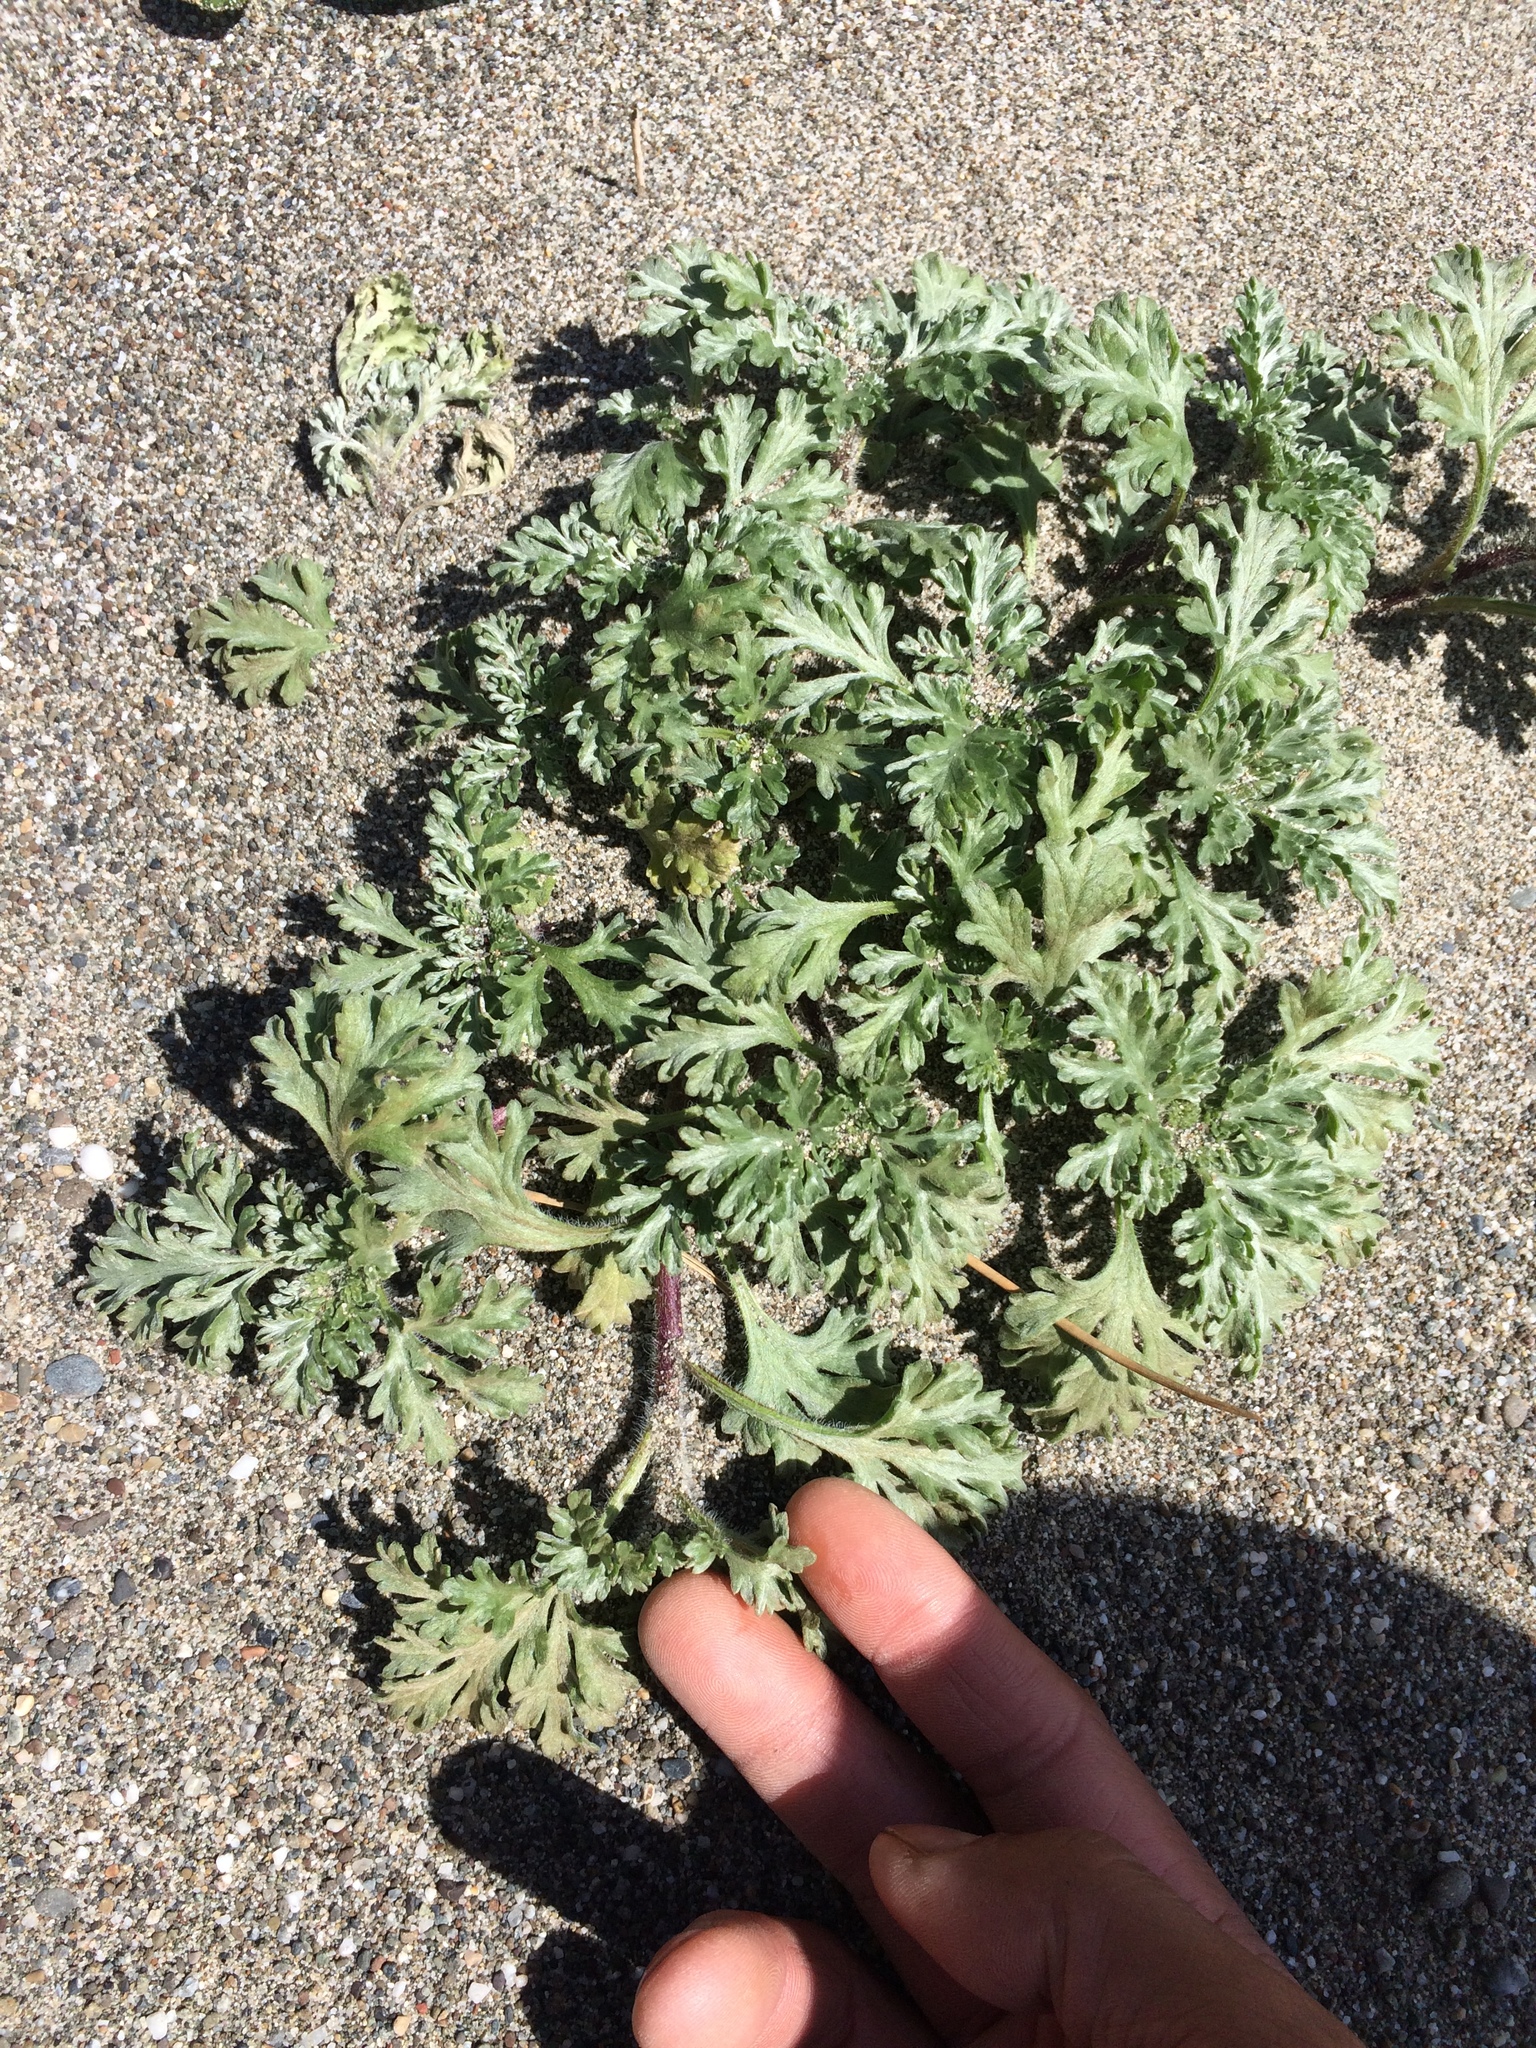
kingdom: Plantae
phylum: Tracheophyta
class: Magnoliopsida
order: Asterales
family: Asteraceae
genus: Ambrosia
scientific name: Ambrosia chamissonis
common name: Beachbur
